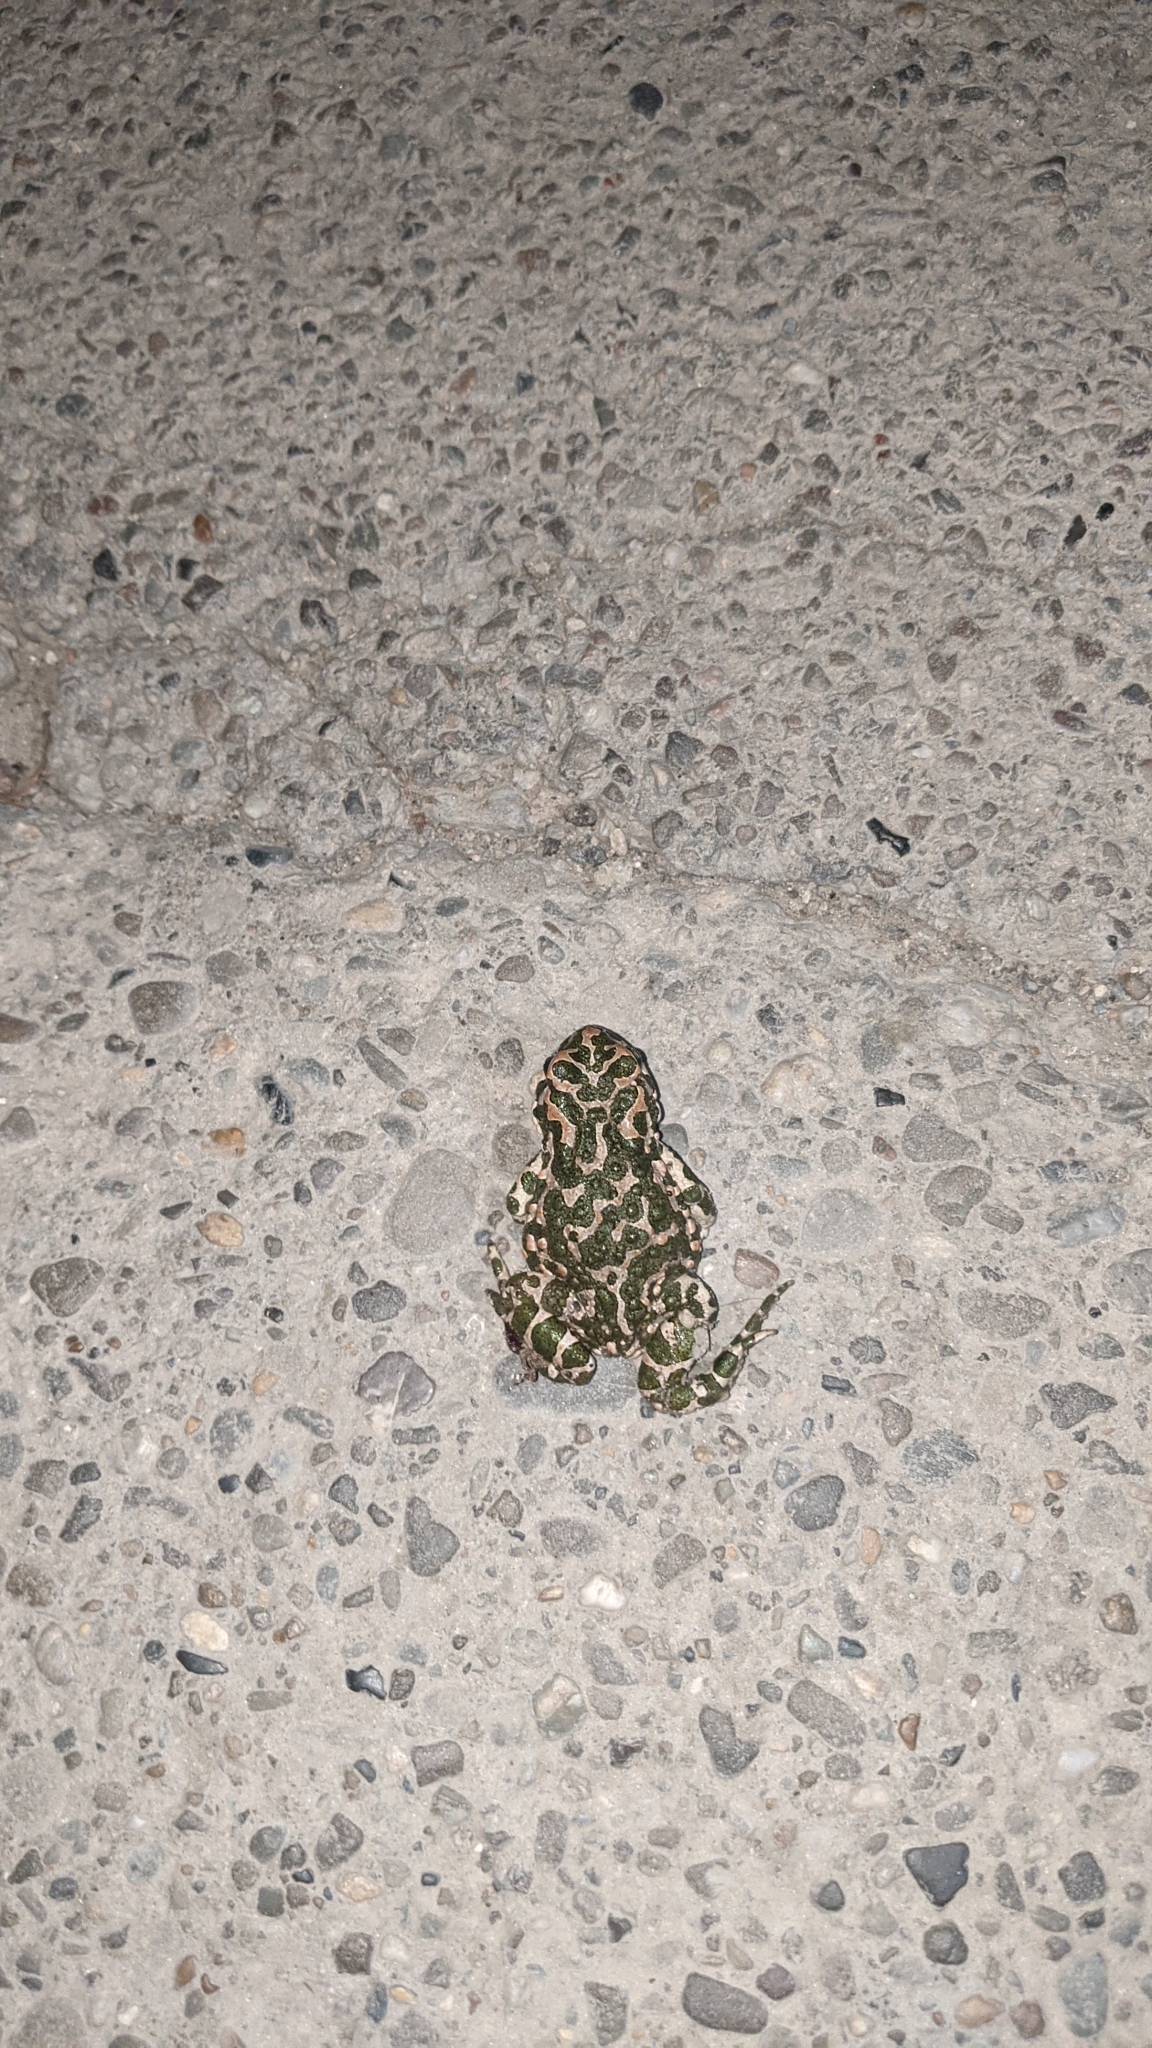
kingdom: Animalia
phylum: Chordata
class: Amphibia
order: Anura
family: Bufonidae
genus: Bufotes
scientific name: Bufotes viridis
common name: European green toad
